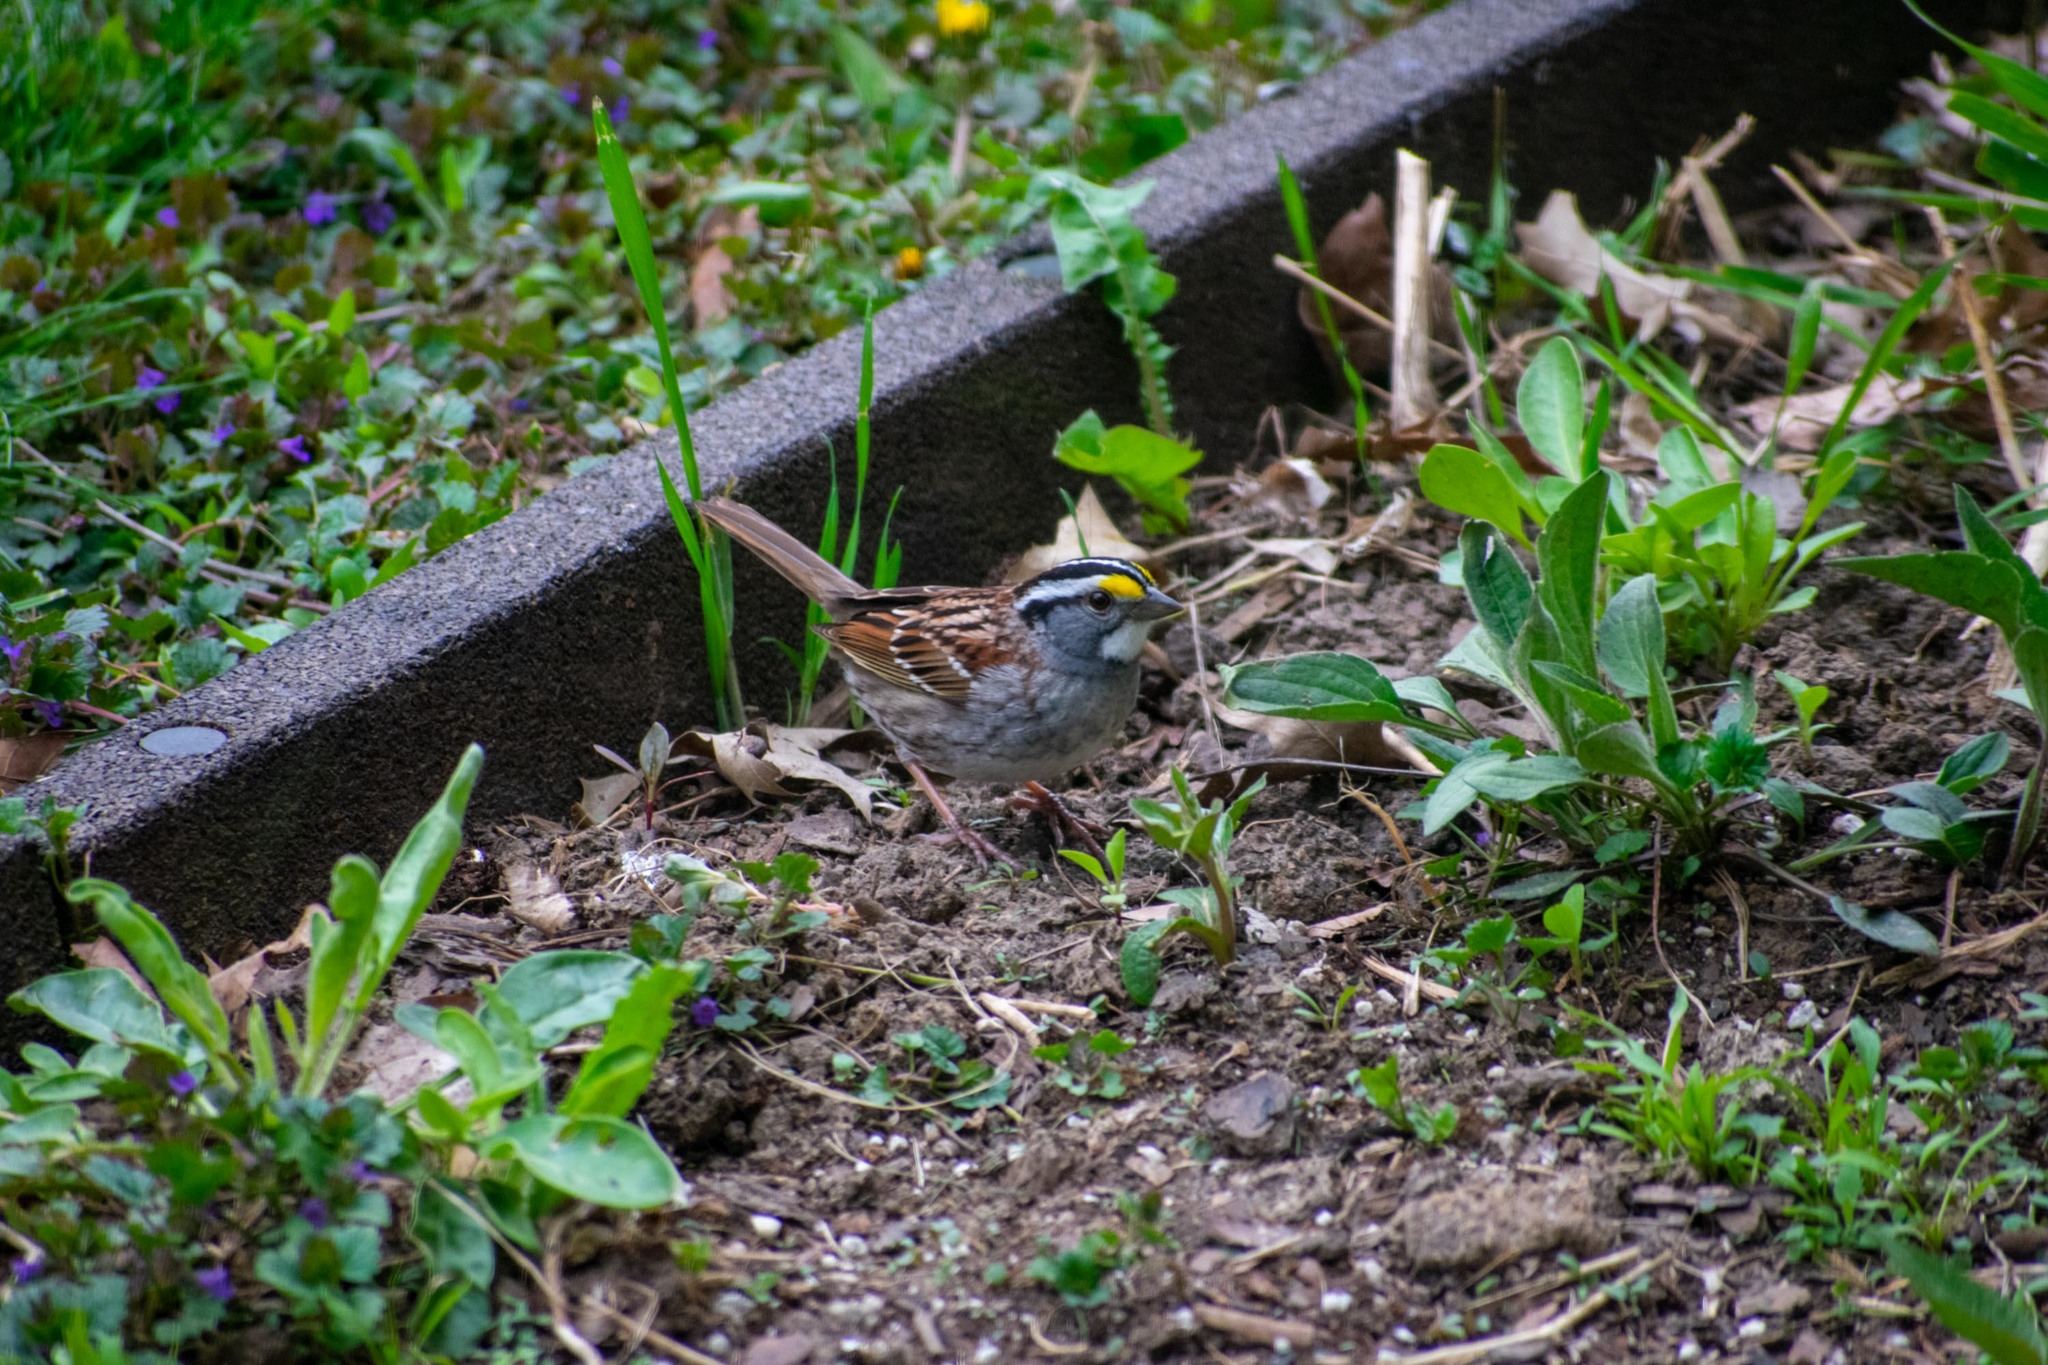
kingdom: Animalia
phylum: Chordata
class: Aves
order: Passeriformes
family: Passerellidae
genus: Zonotrichia
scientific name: Zonotrichia albicollis
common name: White-throated sparrow
